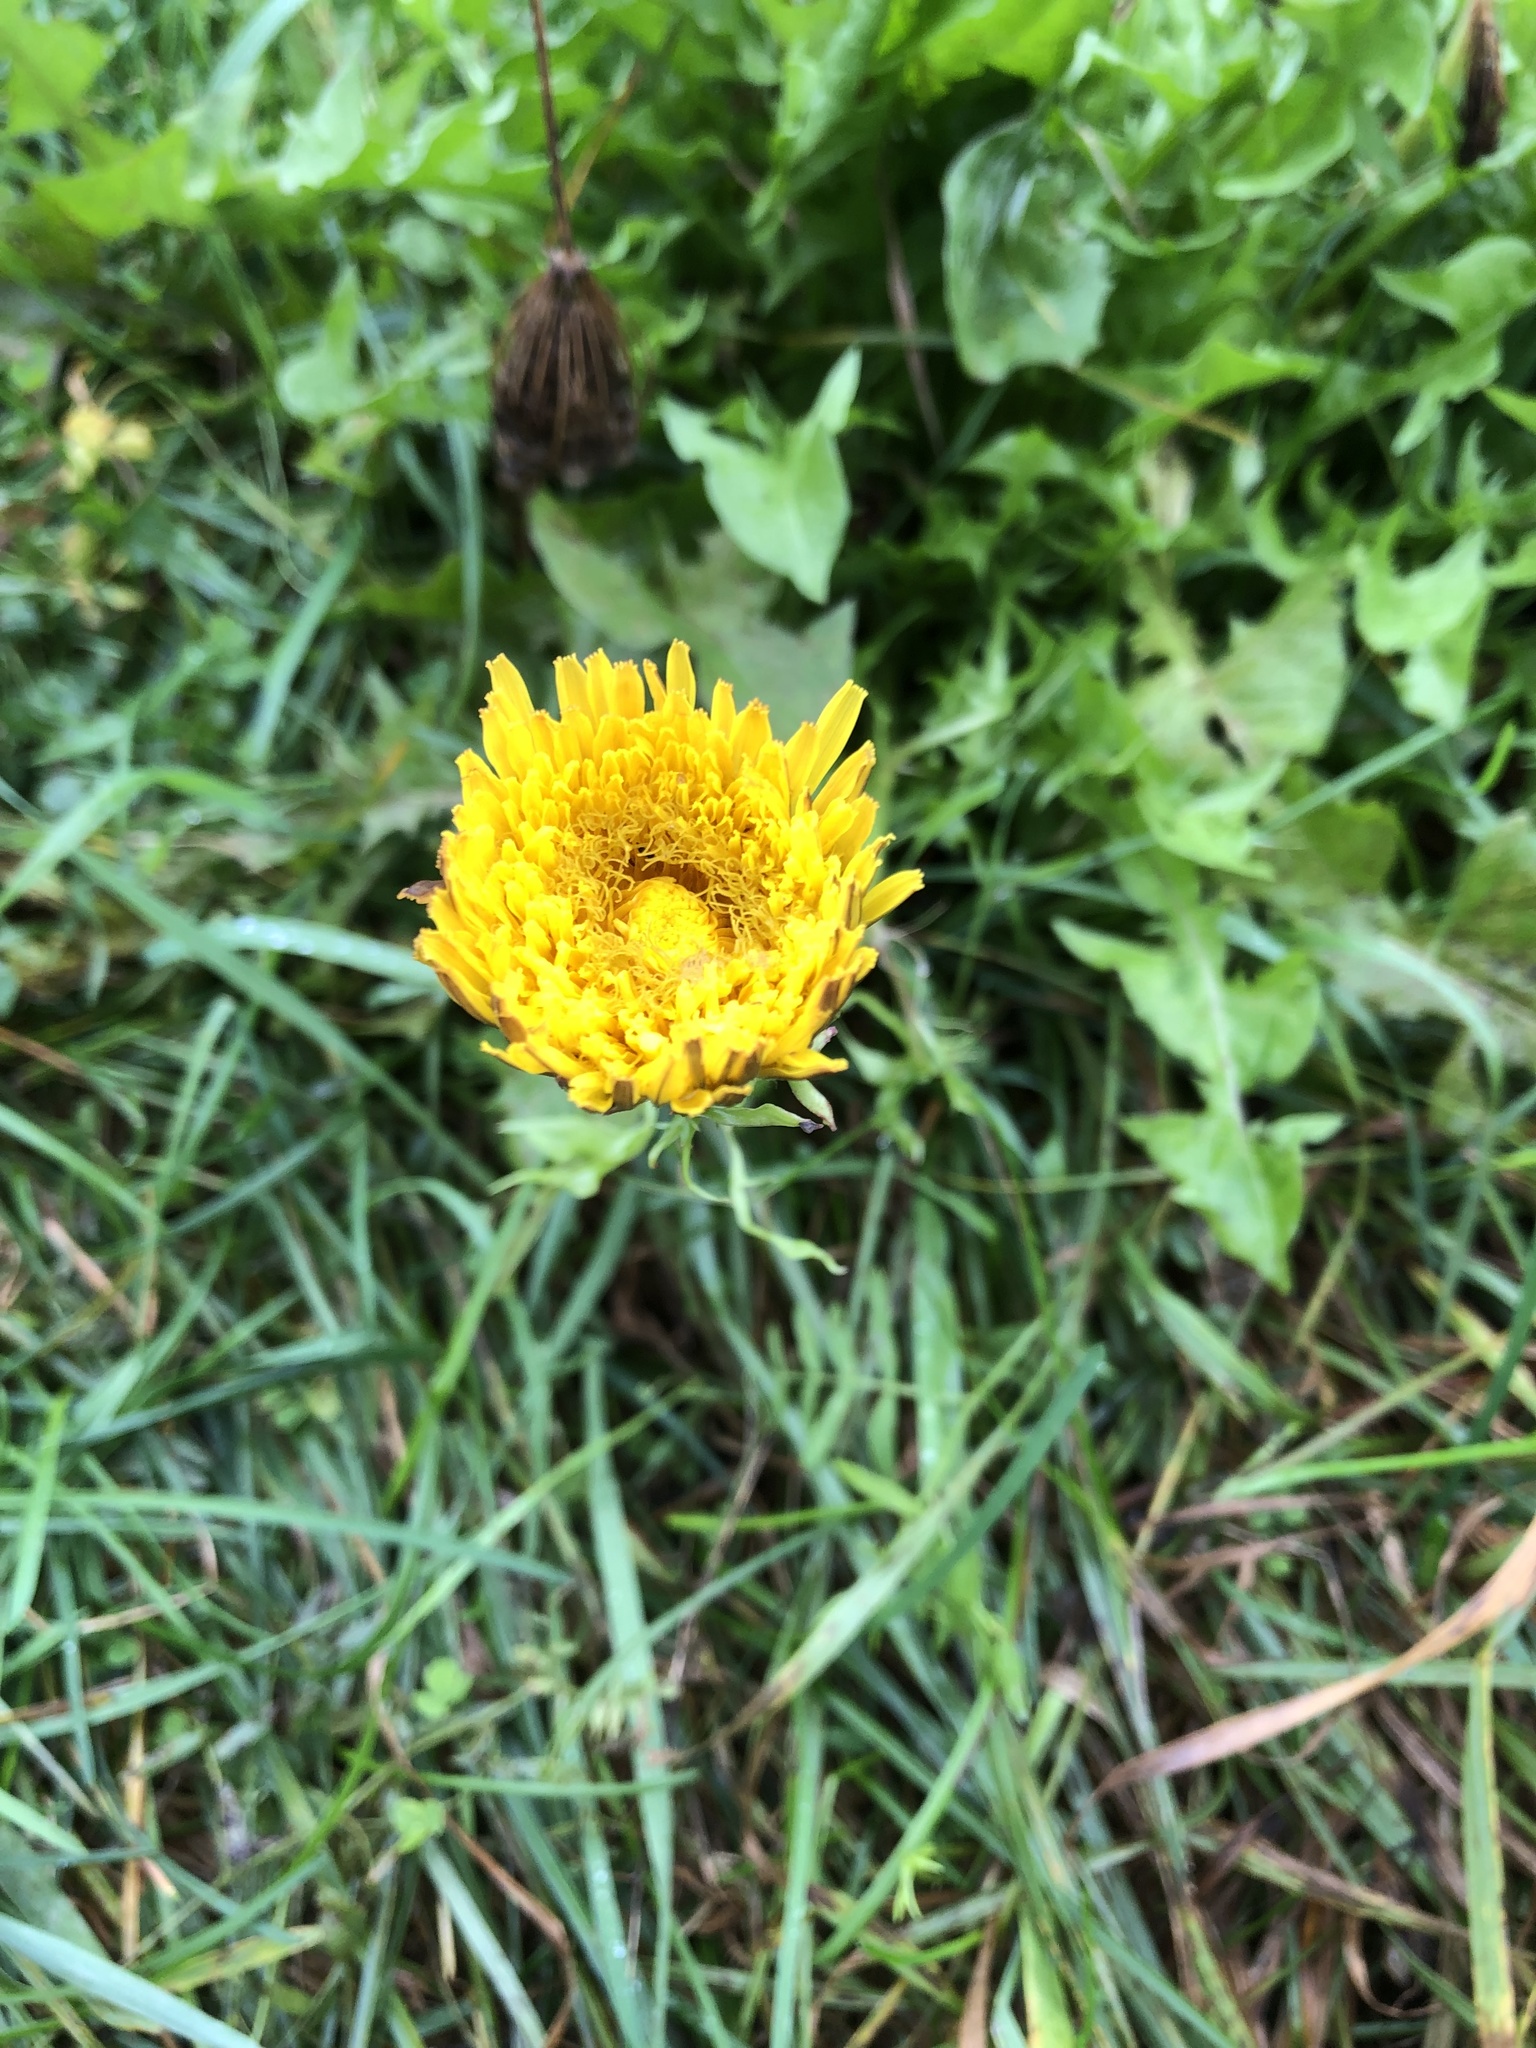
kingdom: Plantae
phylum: Tracheophyta
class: Magnoliopsida
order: Asterales
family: Asteraceae
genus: Taraxacum
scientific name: Taraxacum officinale
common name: Common dandelion
